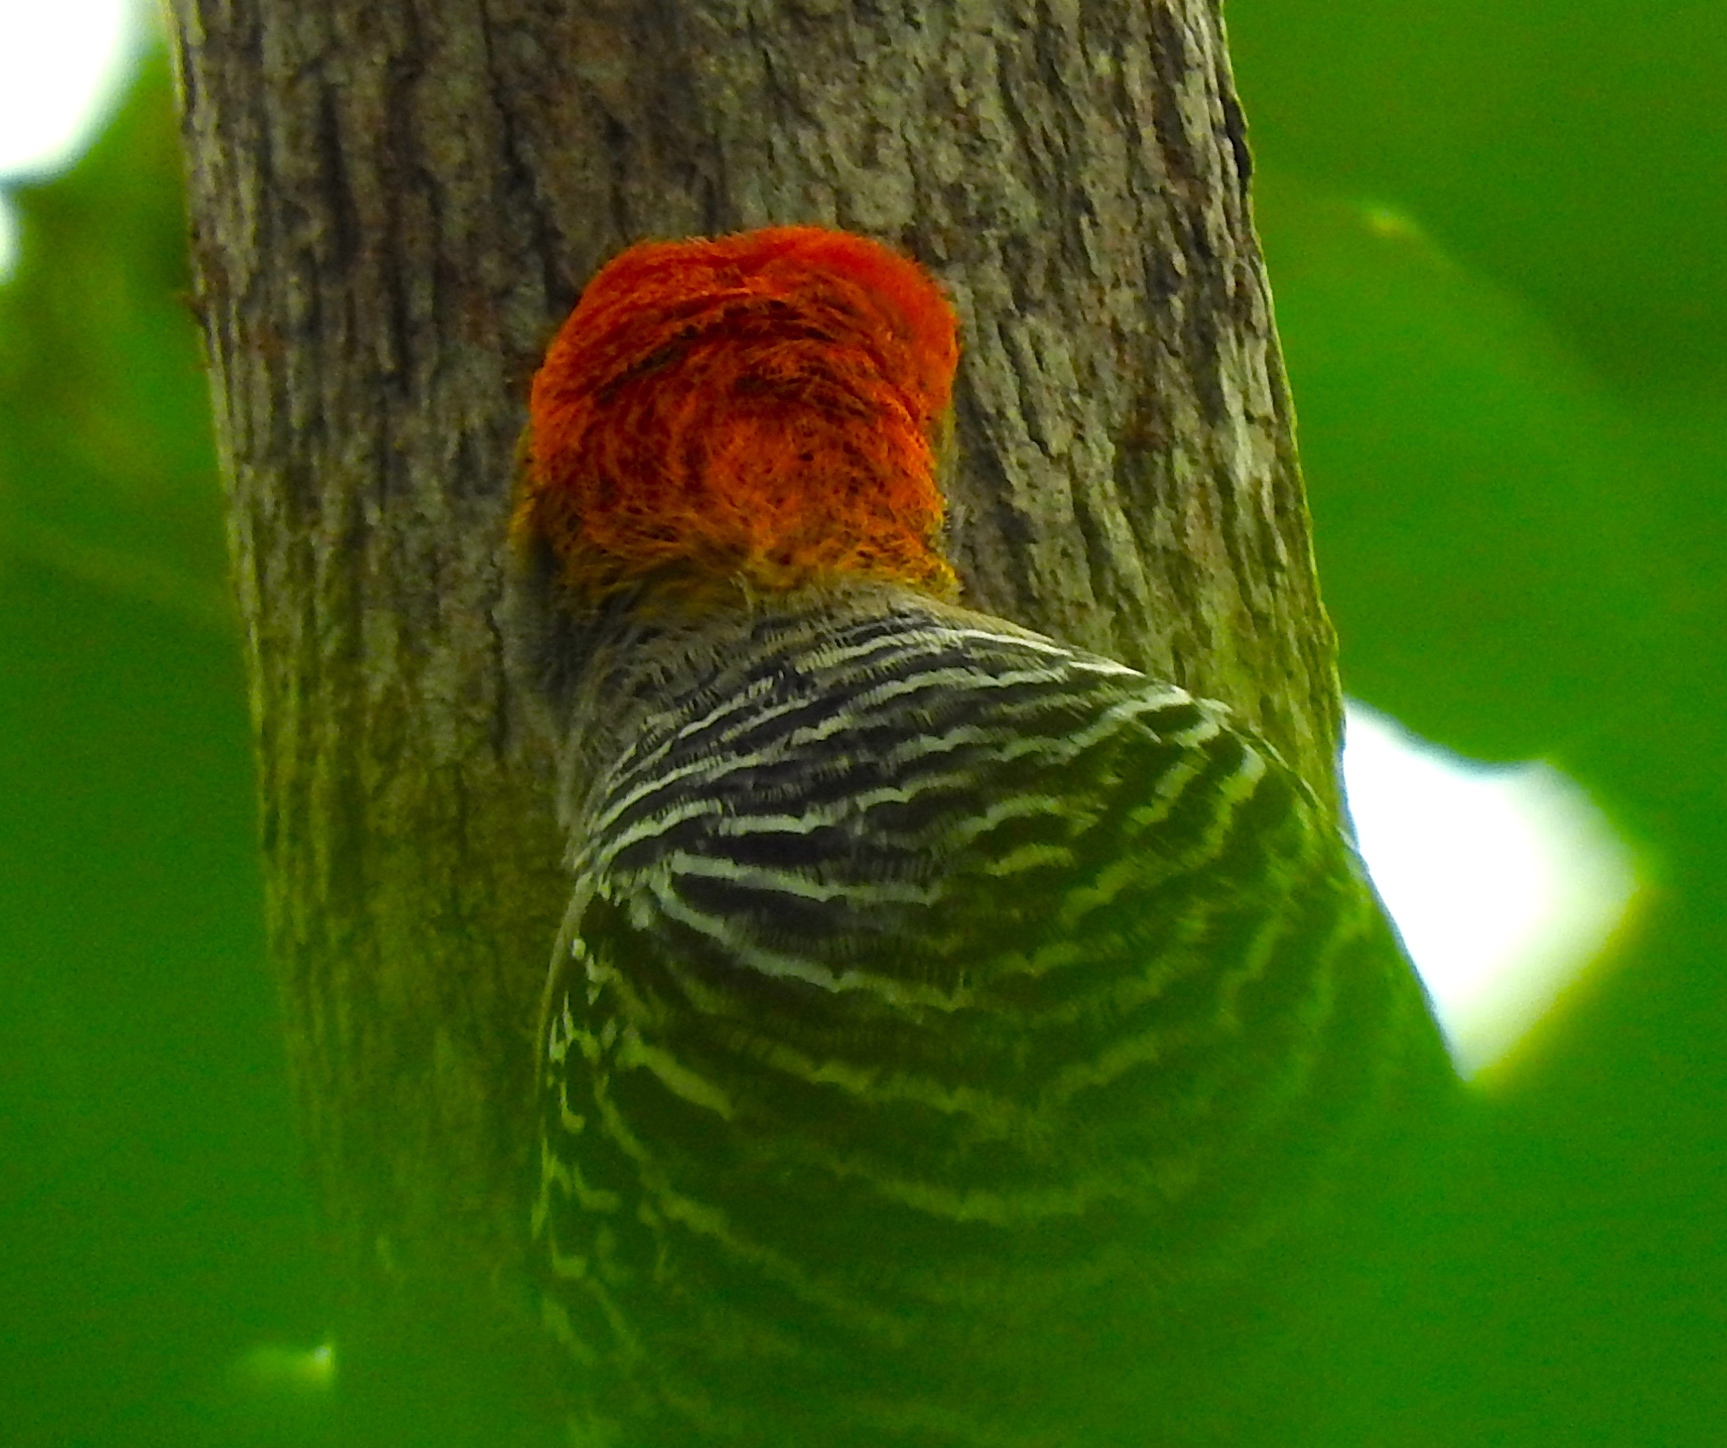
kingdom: Animalia
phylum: Chordata
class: Aves
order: Piciformes
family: Picidae
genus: Melanerpes
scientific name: Melanerpes chrysogenys
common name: Golden-cheeked woodpecker
